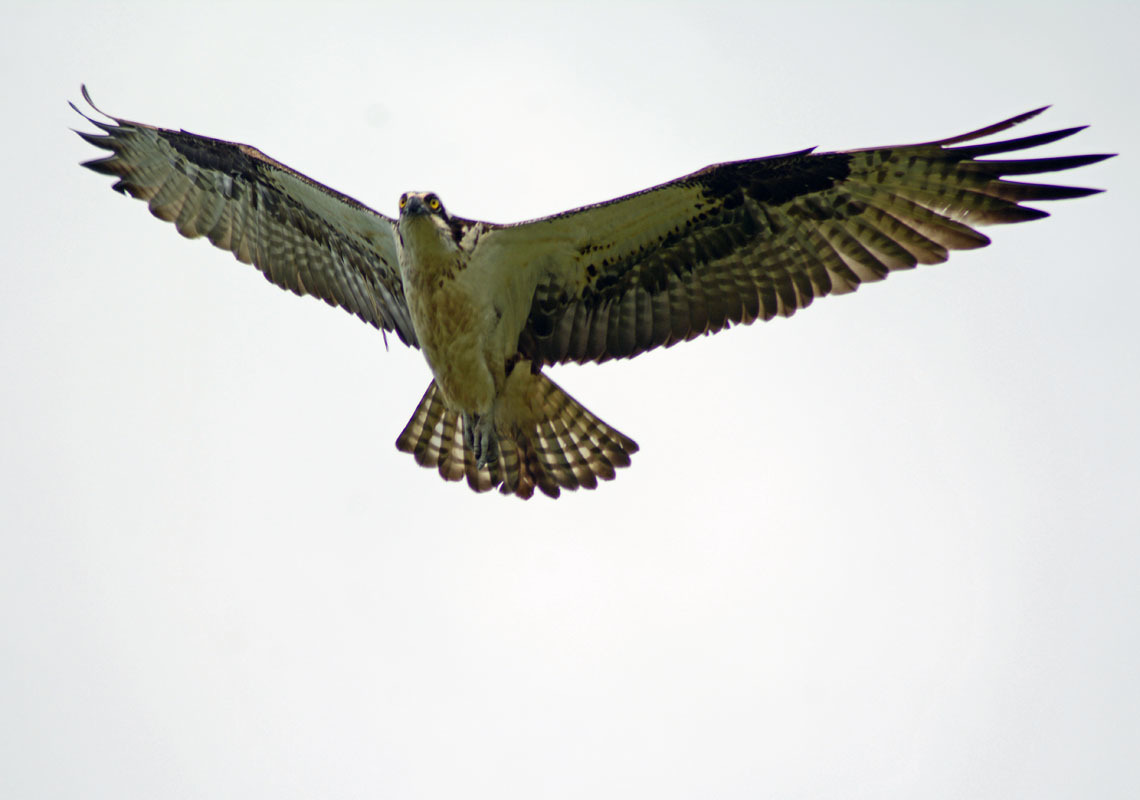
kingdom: Animalia
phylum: Chordata
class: Aves
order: Accipitriformes
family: Pandionidae
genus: Pandion
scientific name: Pandion haliaetus
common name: Osprey
